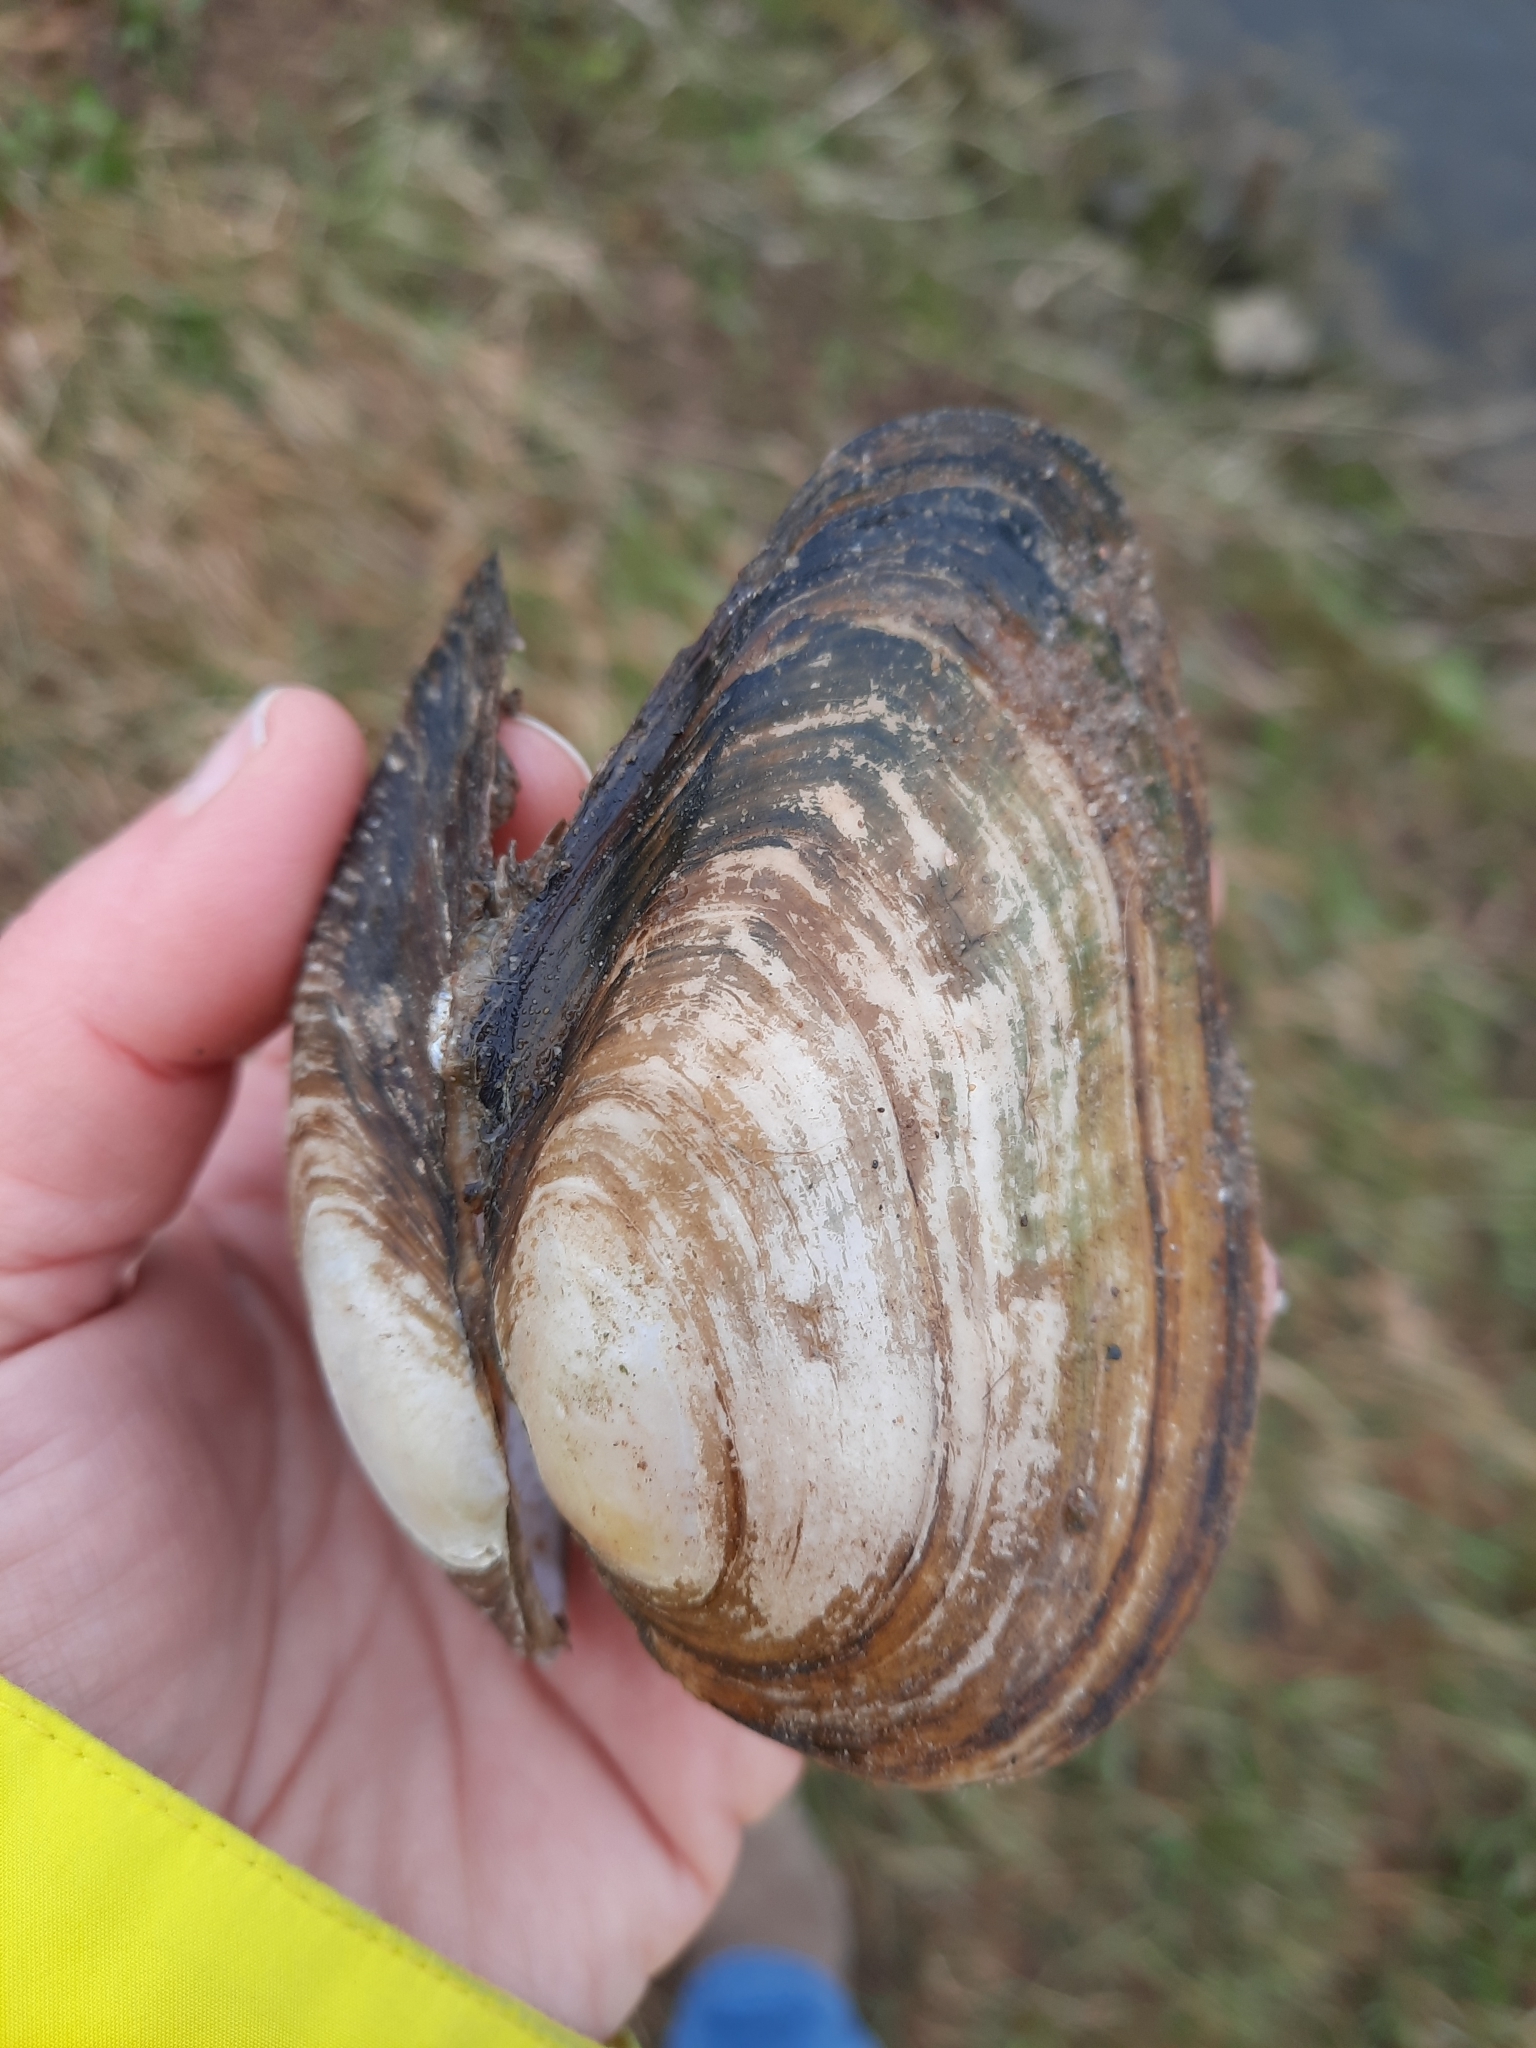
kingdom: Animalia
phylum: Mollusca
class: Bivalvia
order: Unionida
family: Unionidae
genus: Anodonta
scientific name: Anodonta anatina
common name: Duck mussel
